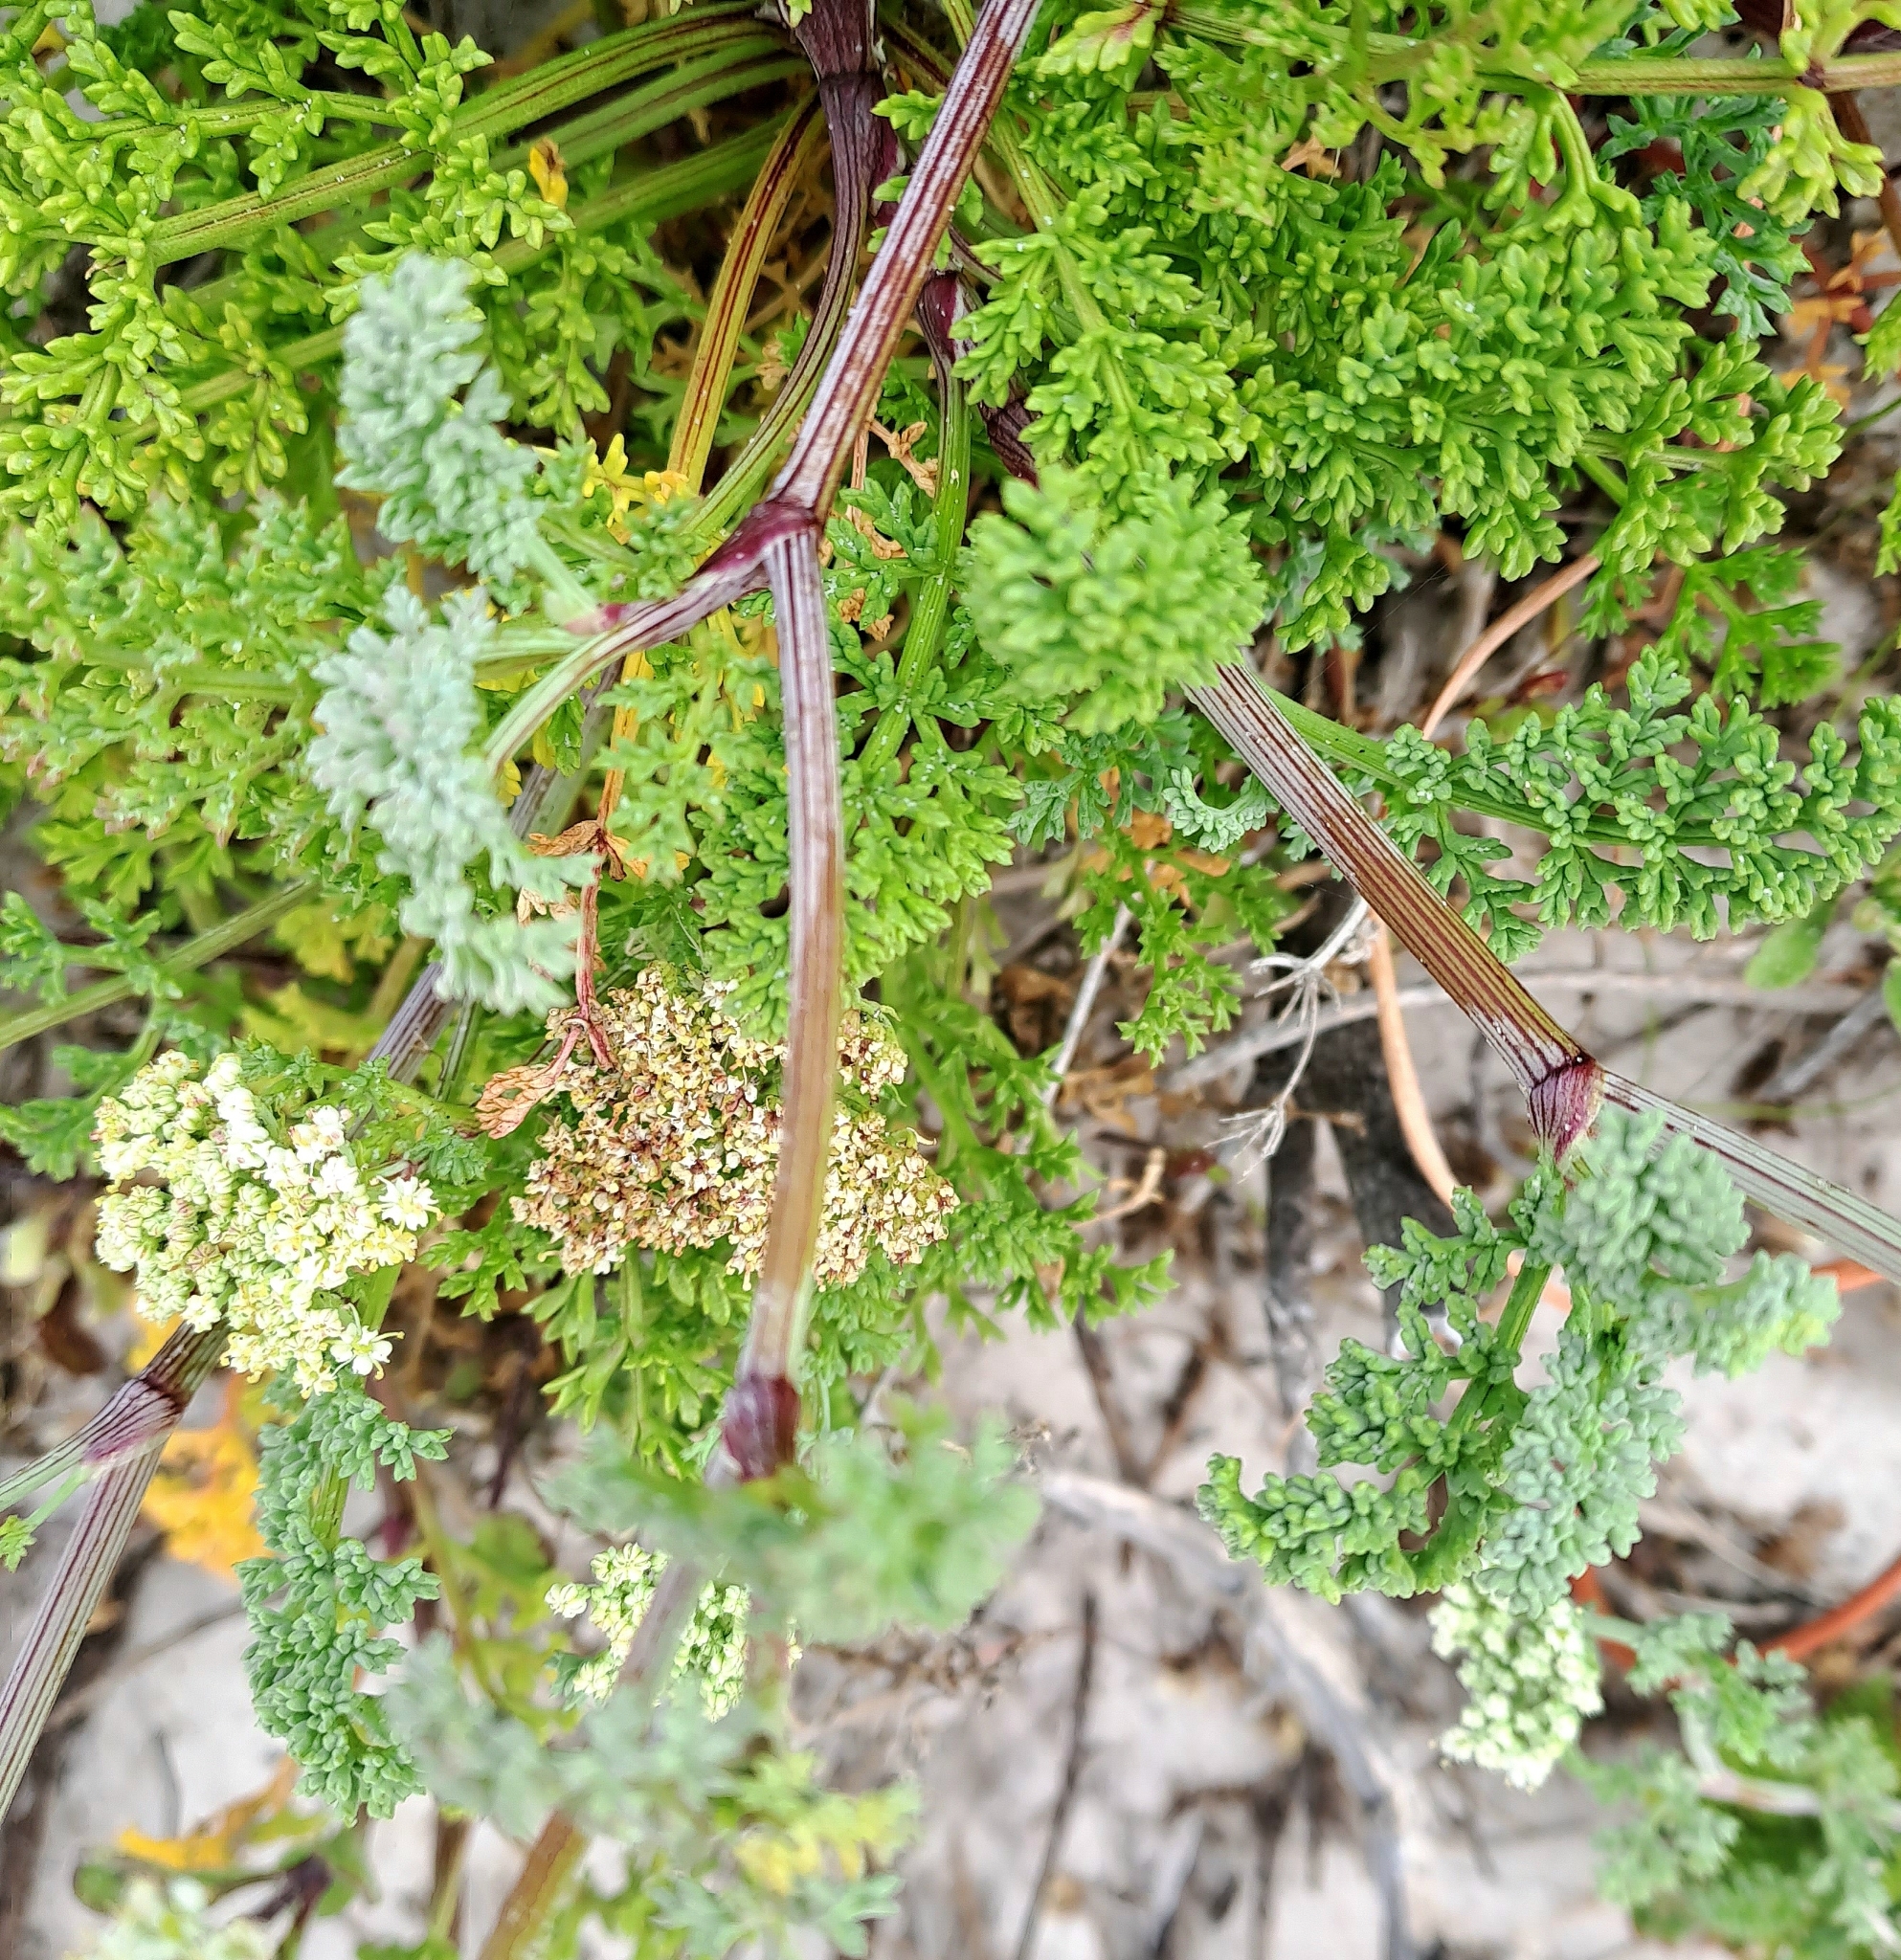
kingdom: Plantae
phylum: Tracheophyta
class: Magnoliopsida
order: Apiales
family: Apiaceae
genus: Dasispermum
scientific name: Dasispermum suffruticosum
